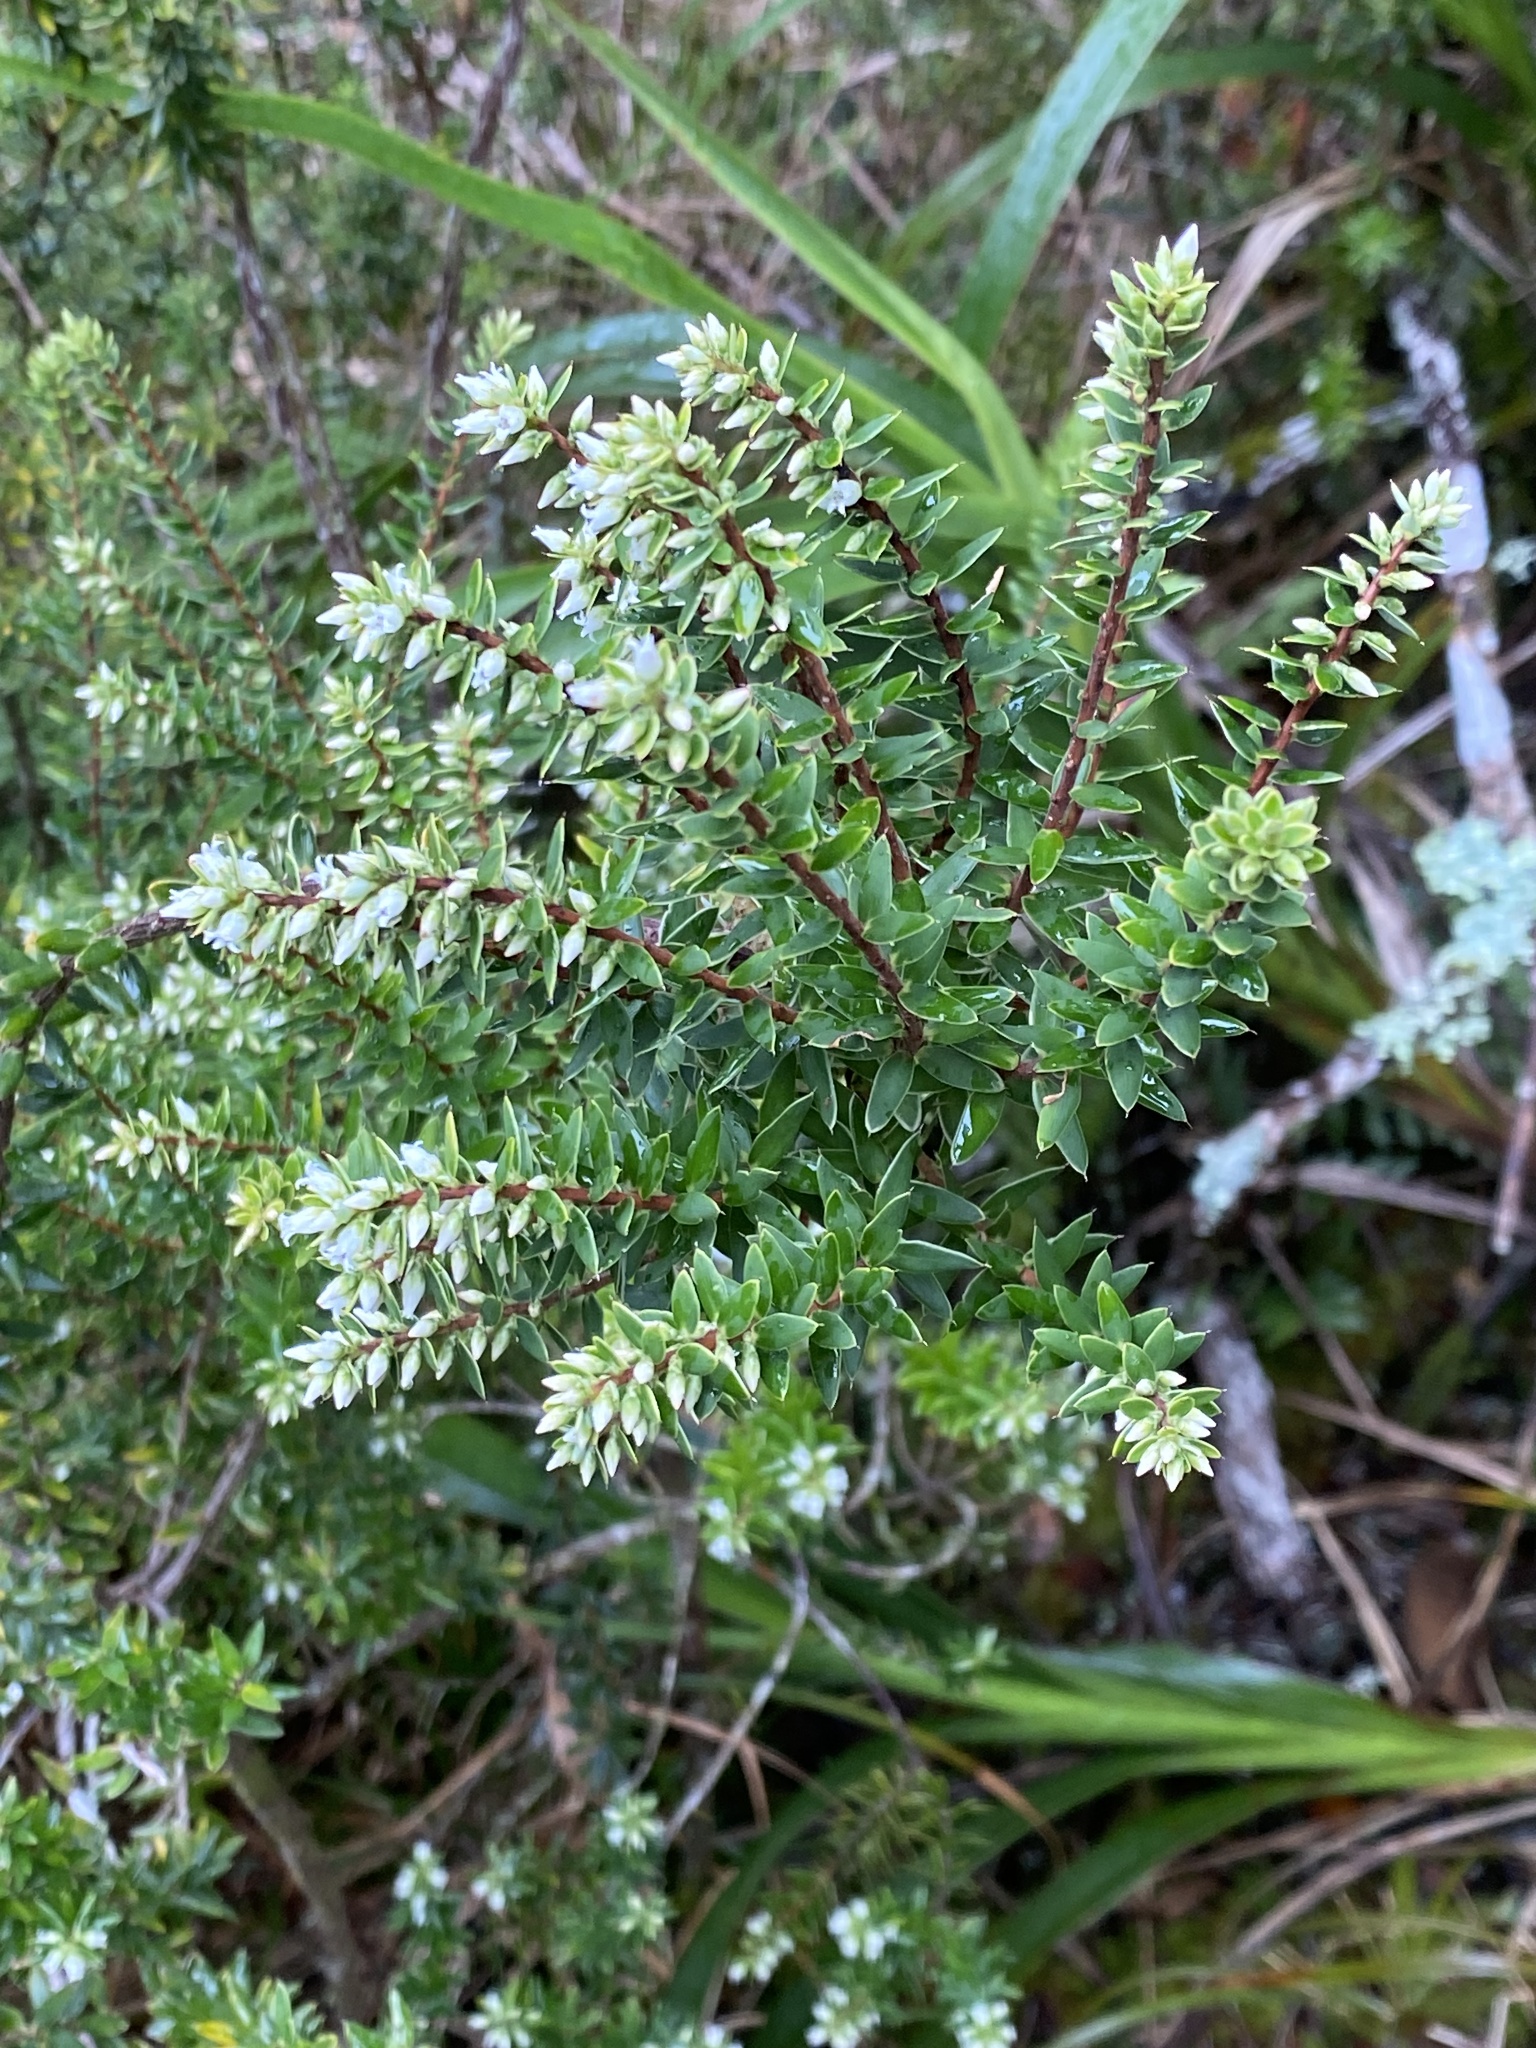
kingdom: Plantae
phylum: Tracheophyta
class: Magnoliopsida
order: Ericales
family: Ericaceae
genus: Leptecophylla
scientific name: Leptecophylla tameiameiae
